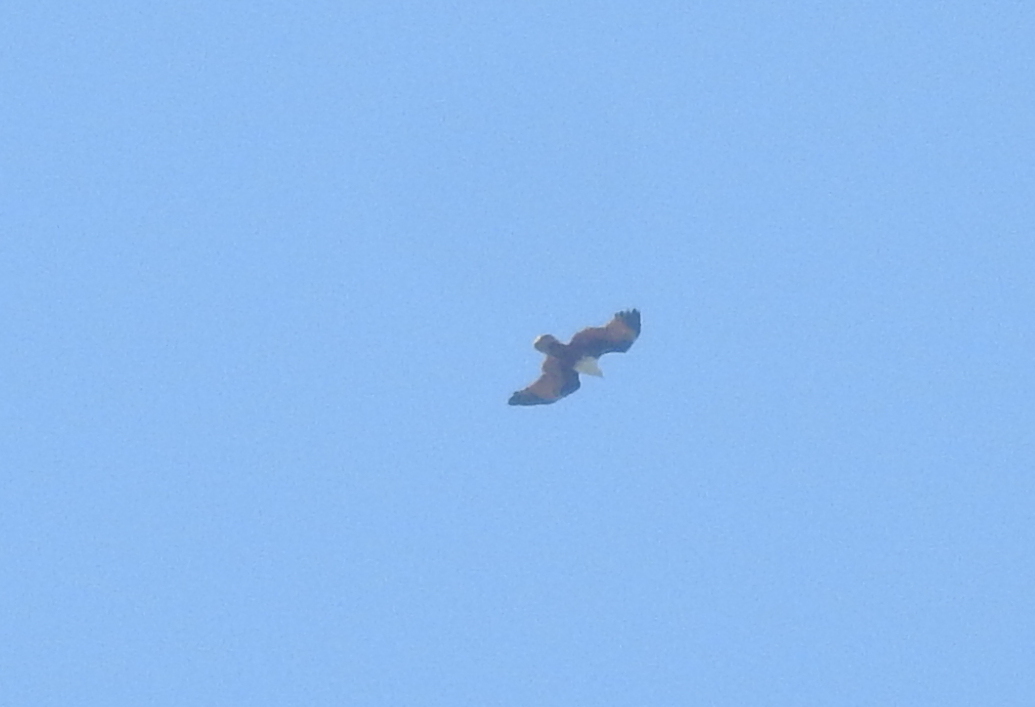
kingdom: Animalia
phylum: Chordata
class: Aves
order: Accipitriformes
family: Accipitridae
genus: Haliastur
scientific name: Haliastur indus
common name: Brahminy kite
